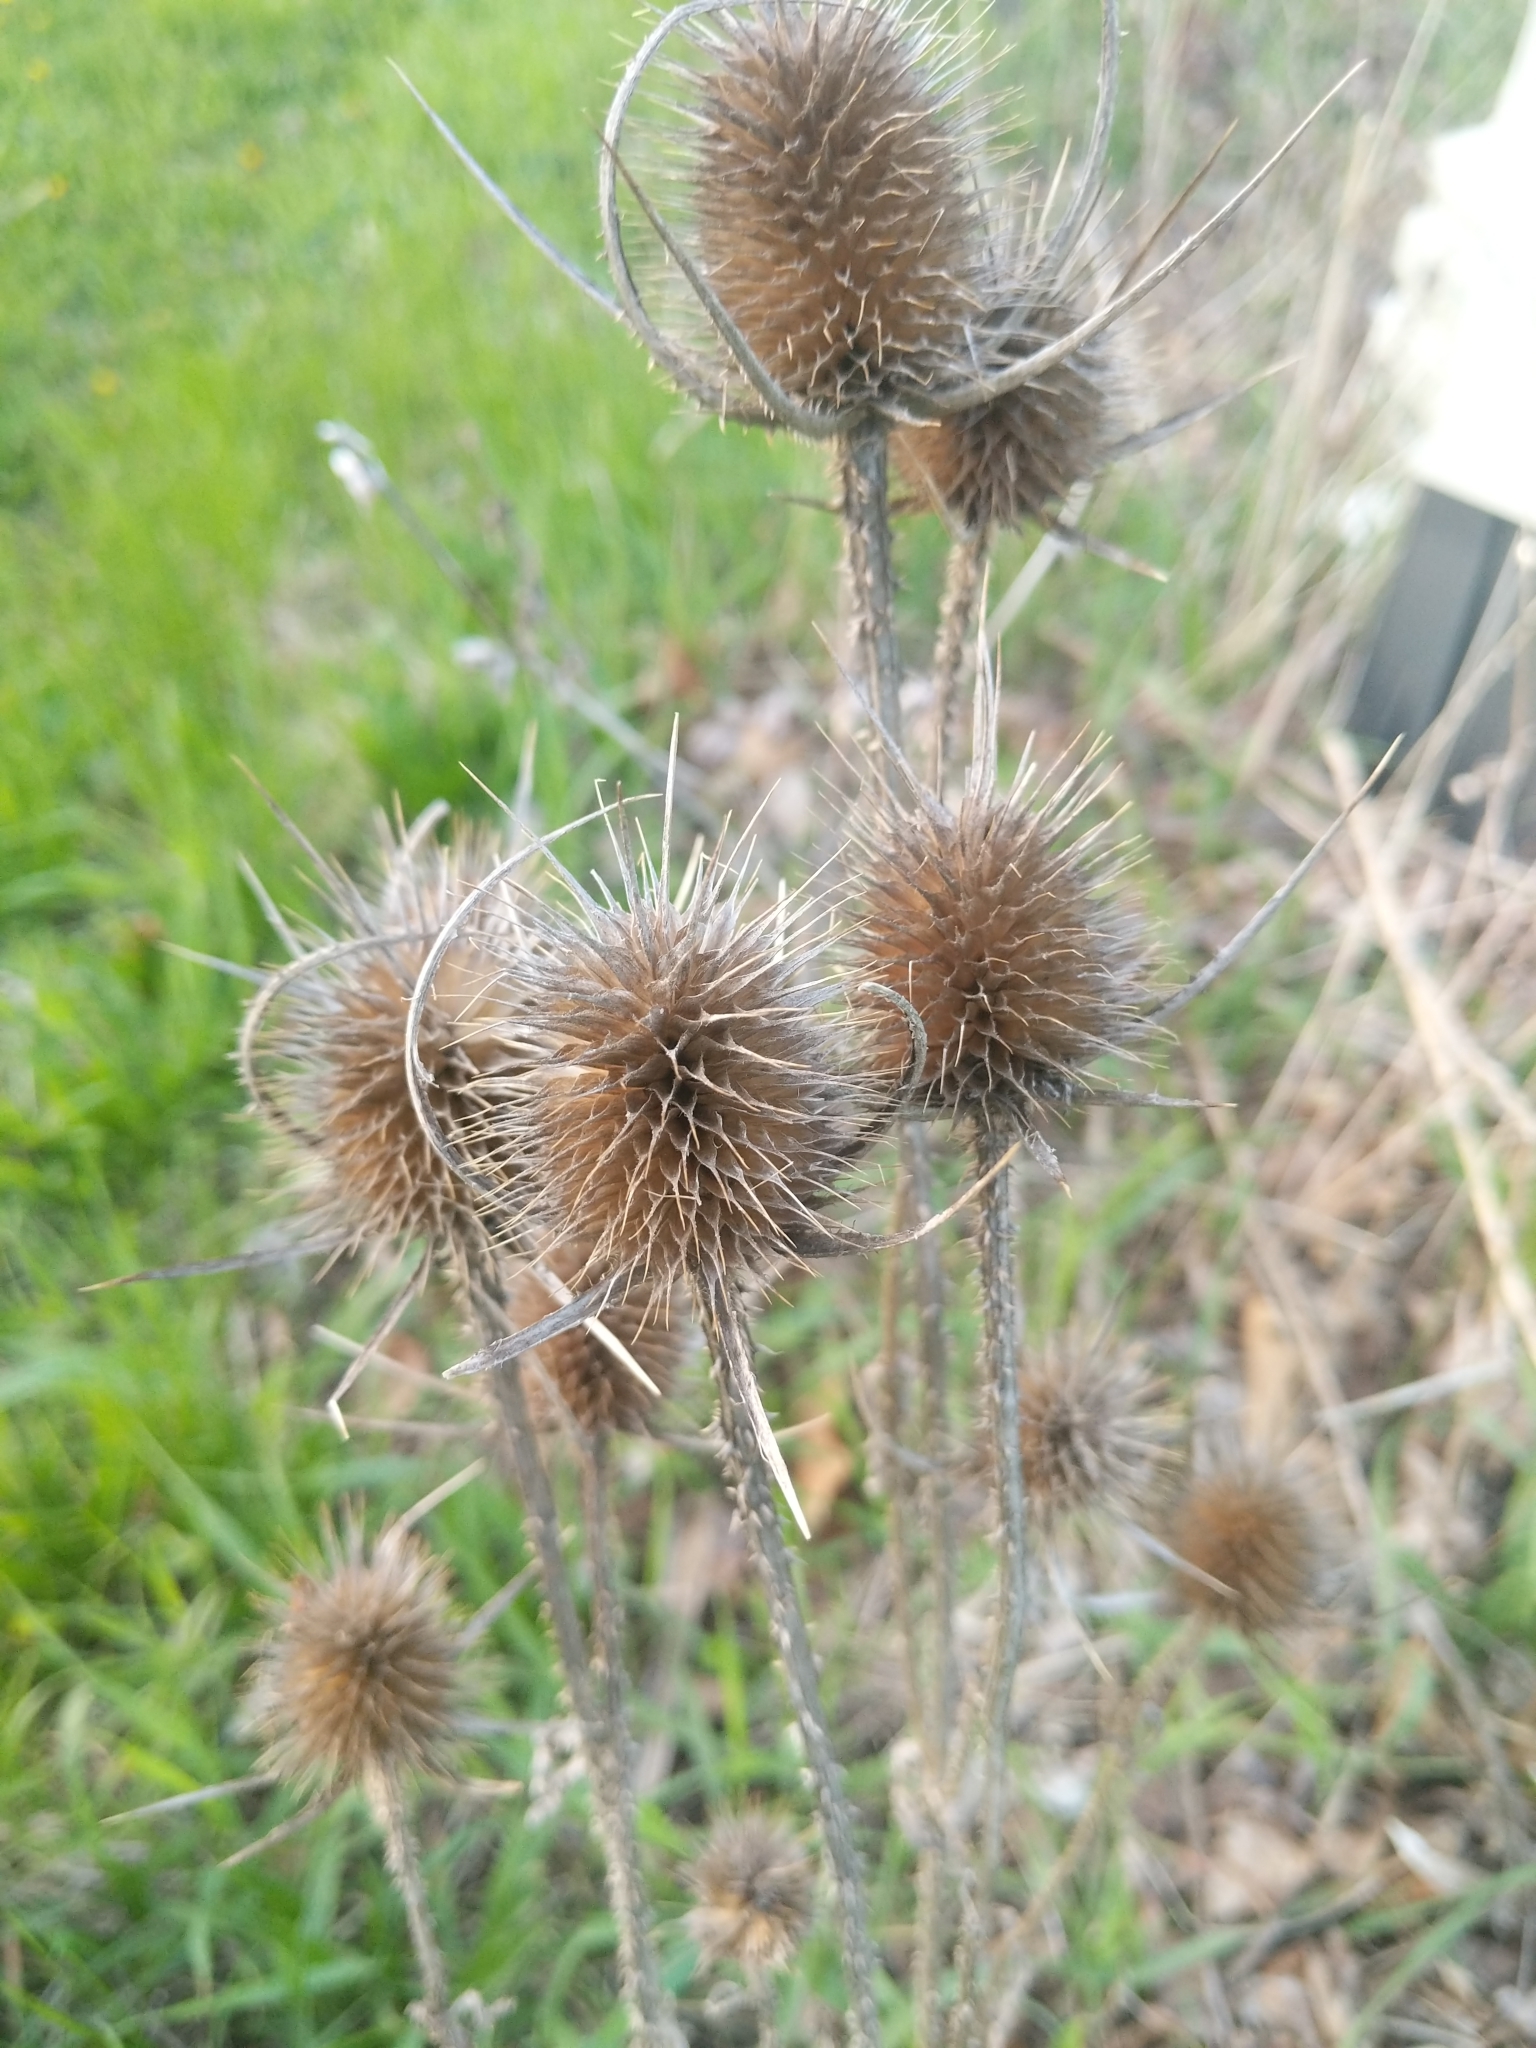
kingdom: Plantae
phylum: Tracheophyta
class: Magnoliopsida
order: Dipsacales
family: Caprifoliaceae
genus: Dipsacus
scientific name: Dipsacus fullonum
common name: Teasel
